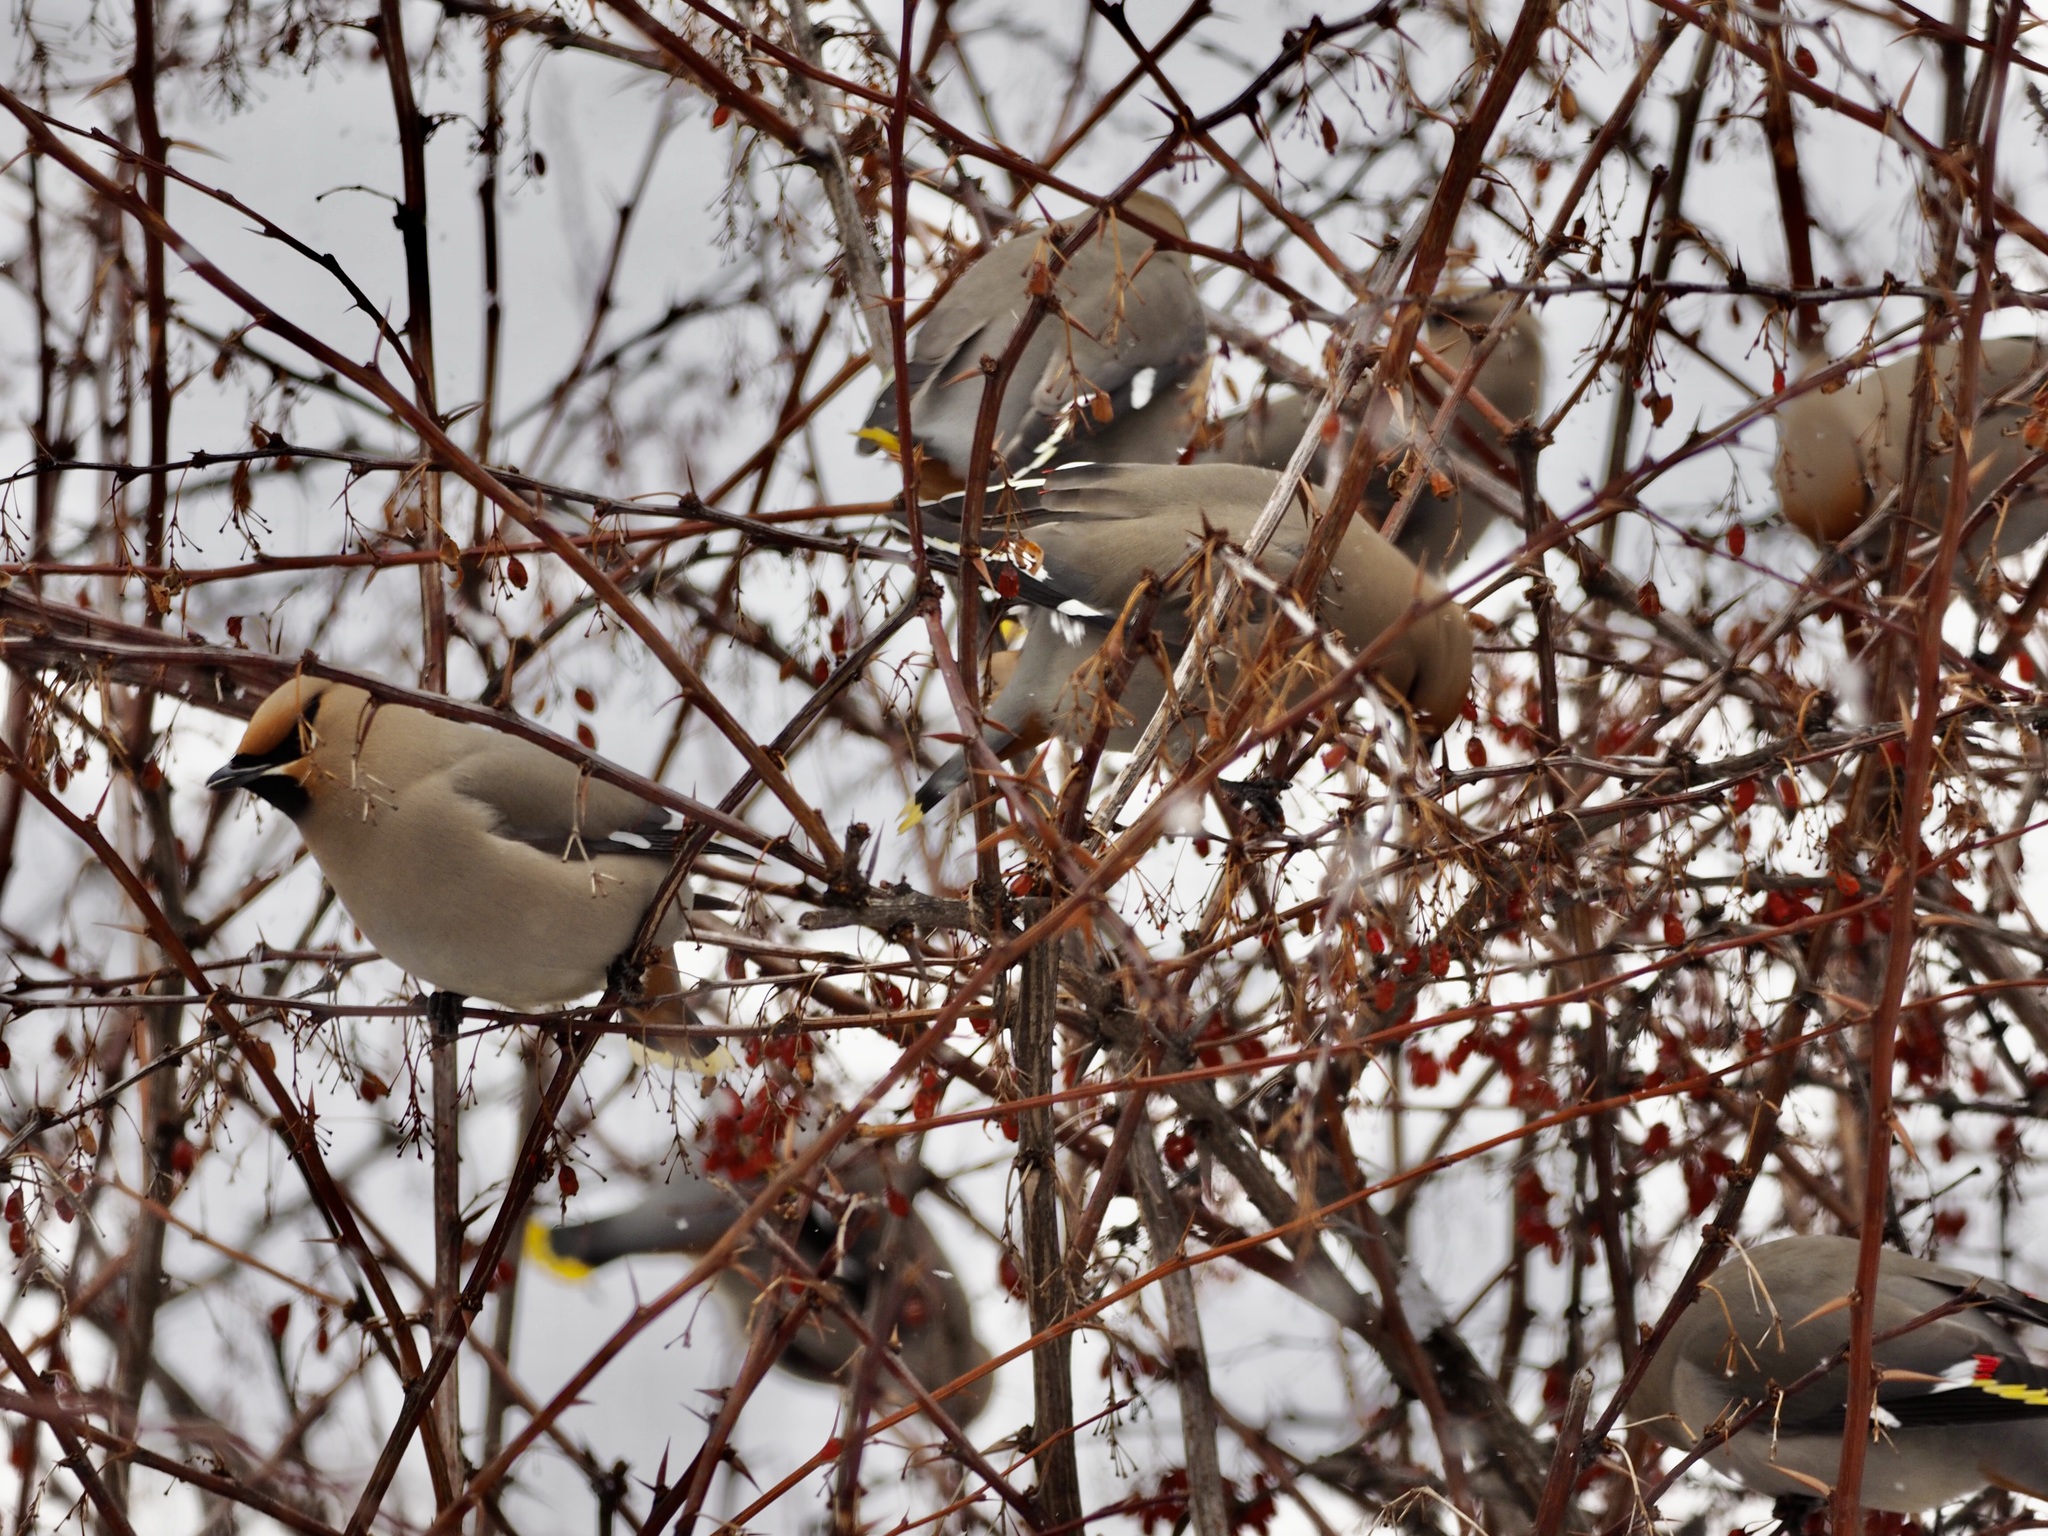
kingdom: Animalia
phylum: Chordata
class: Aves
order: Passeriformes
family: Bombycillidae
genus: Bombycilla
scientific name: Bombycilla garrulus
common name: Bohemian waxwing
